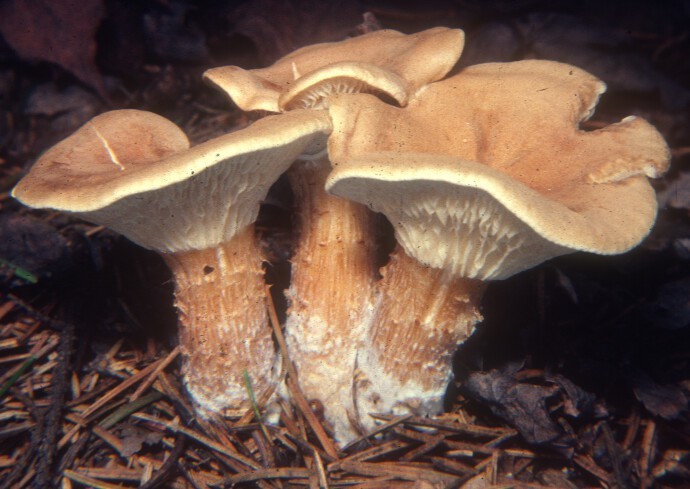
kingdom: Fungi
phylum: Basidiomycota
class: Agaricomycetes
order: Agaricales
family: Tricholomataceae
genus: Infundibulicybe
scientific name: Infundibulicybe squamulosa
